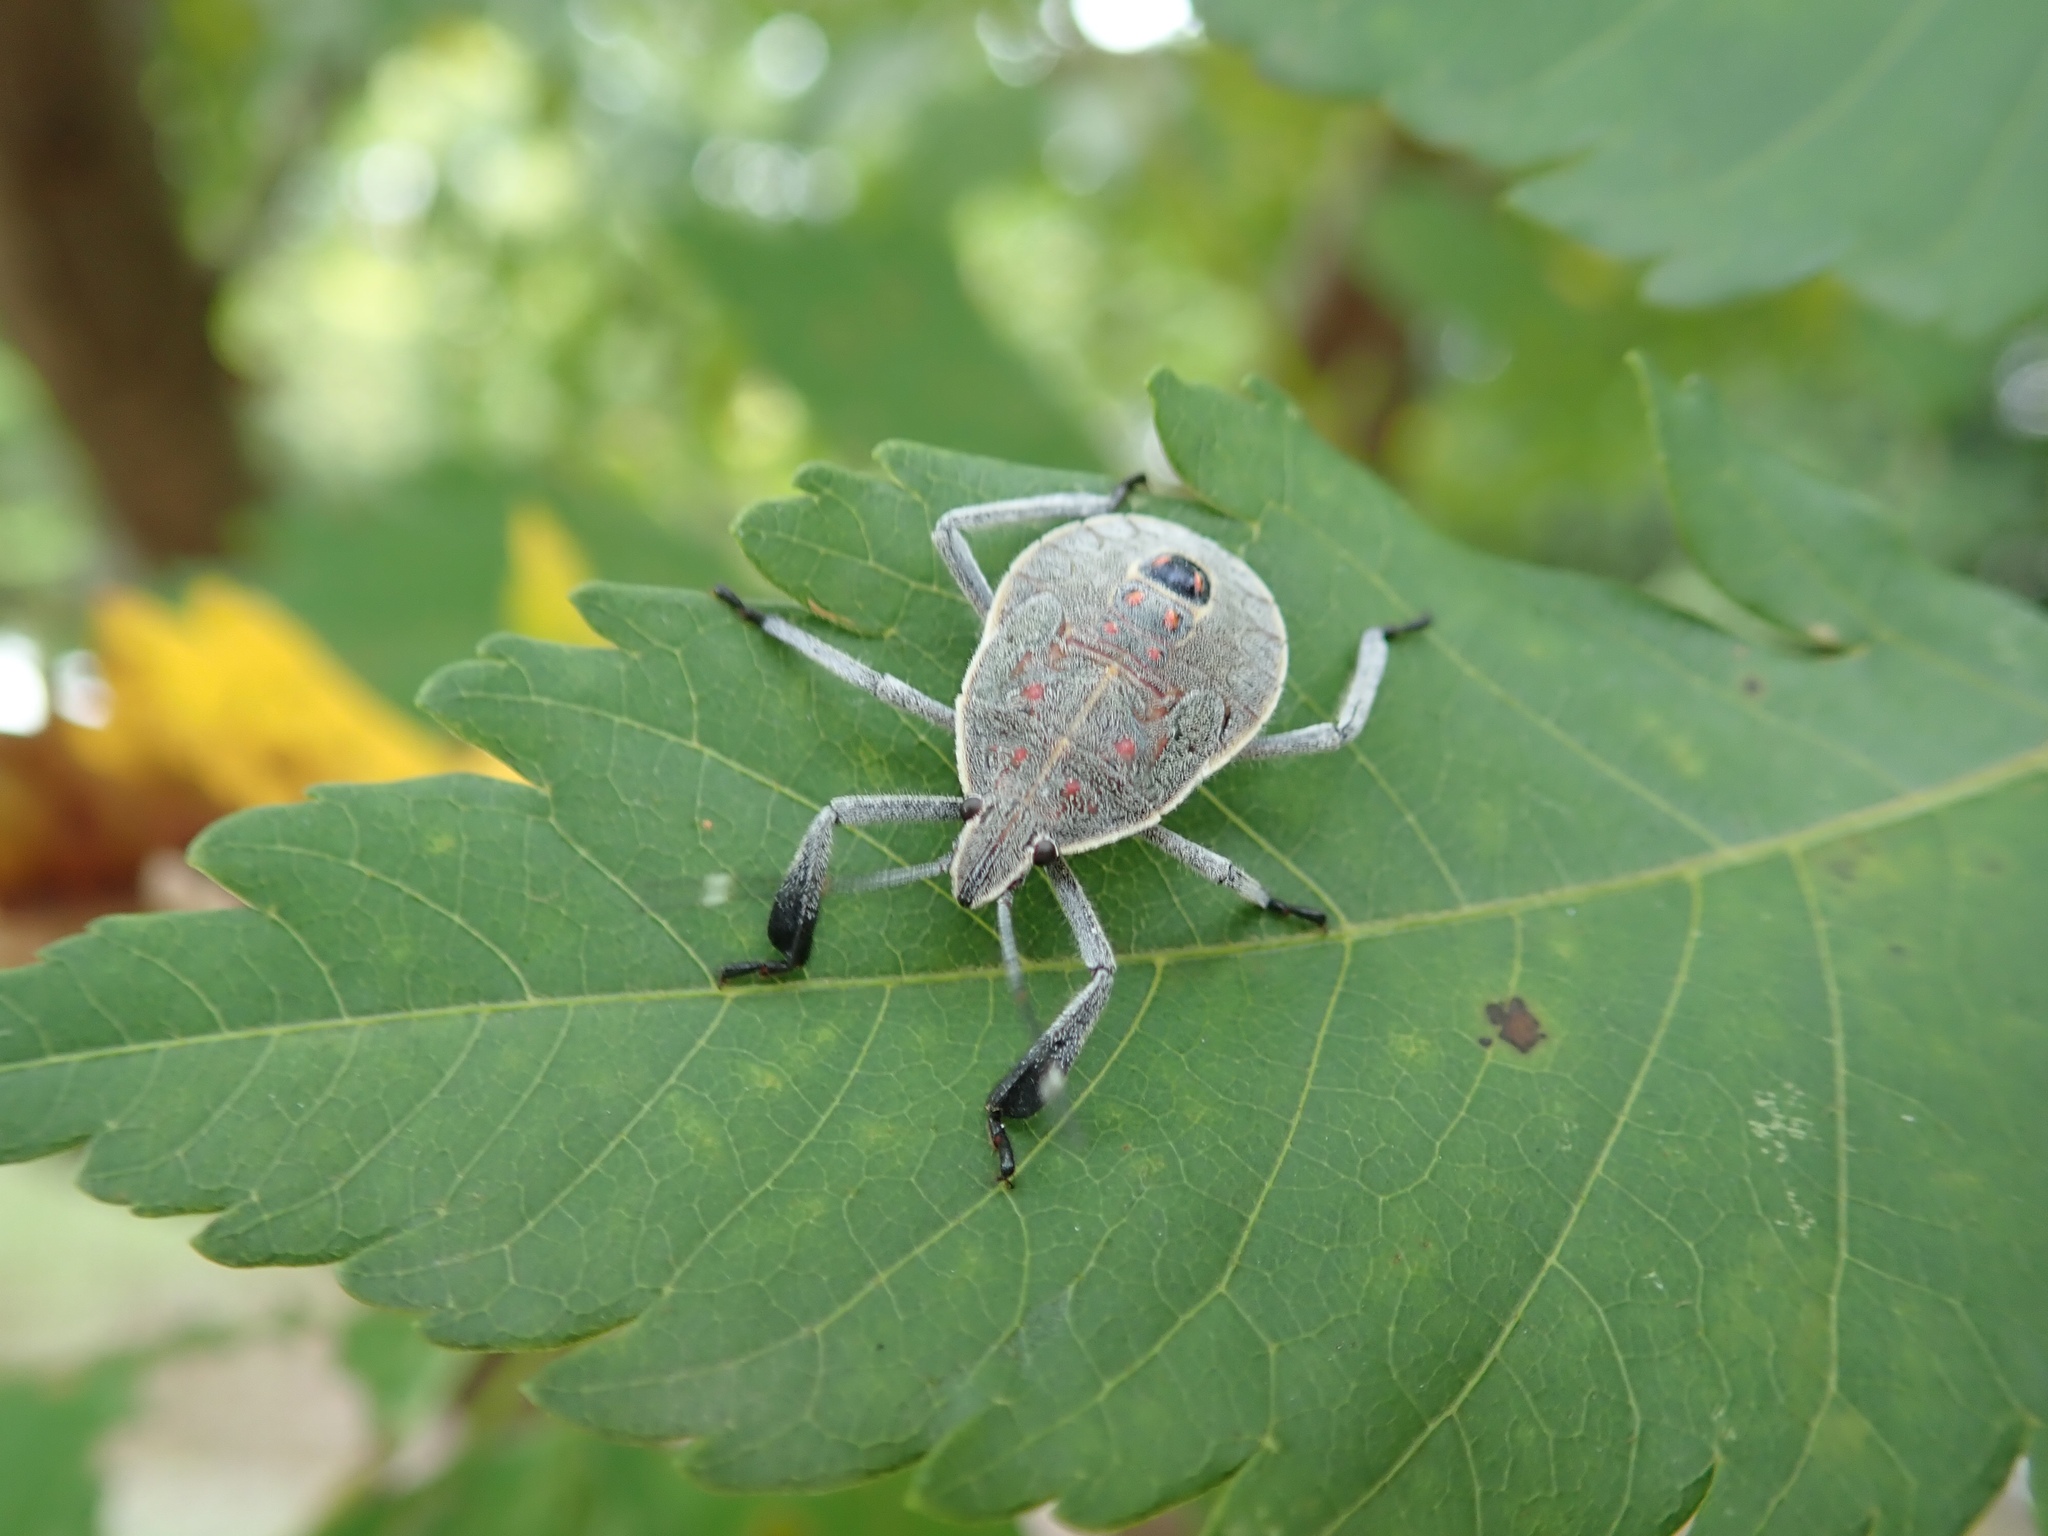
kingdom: Animalia
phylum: Arthropoda
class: Insecta
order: Hemiptera
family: Pentatomidae
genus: Erthesina
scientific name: Erthesina fullo
